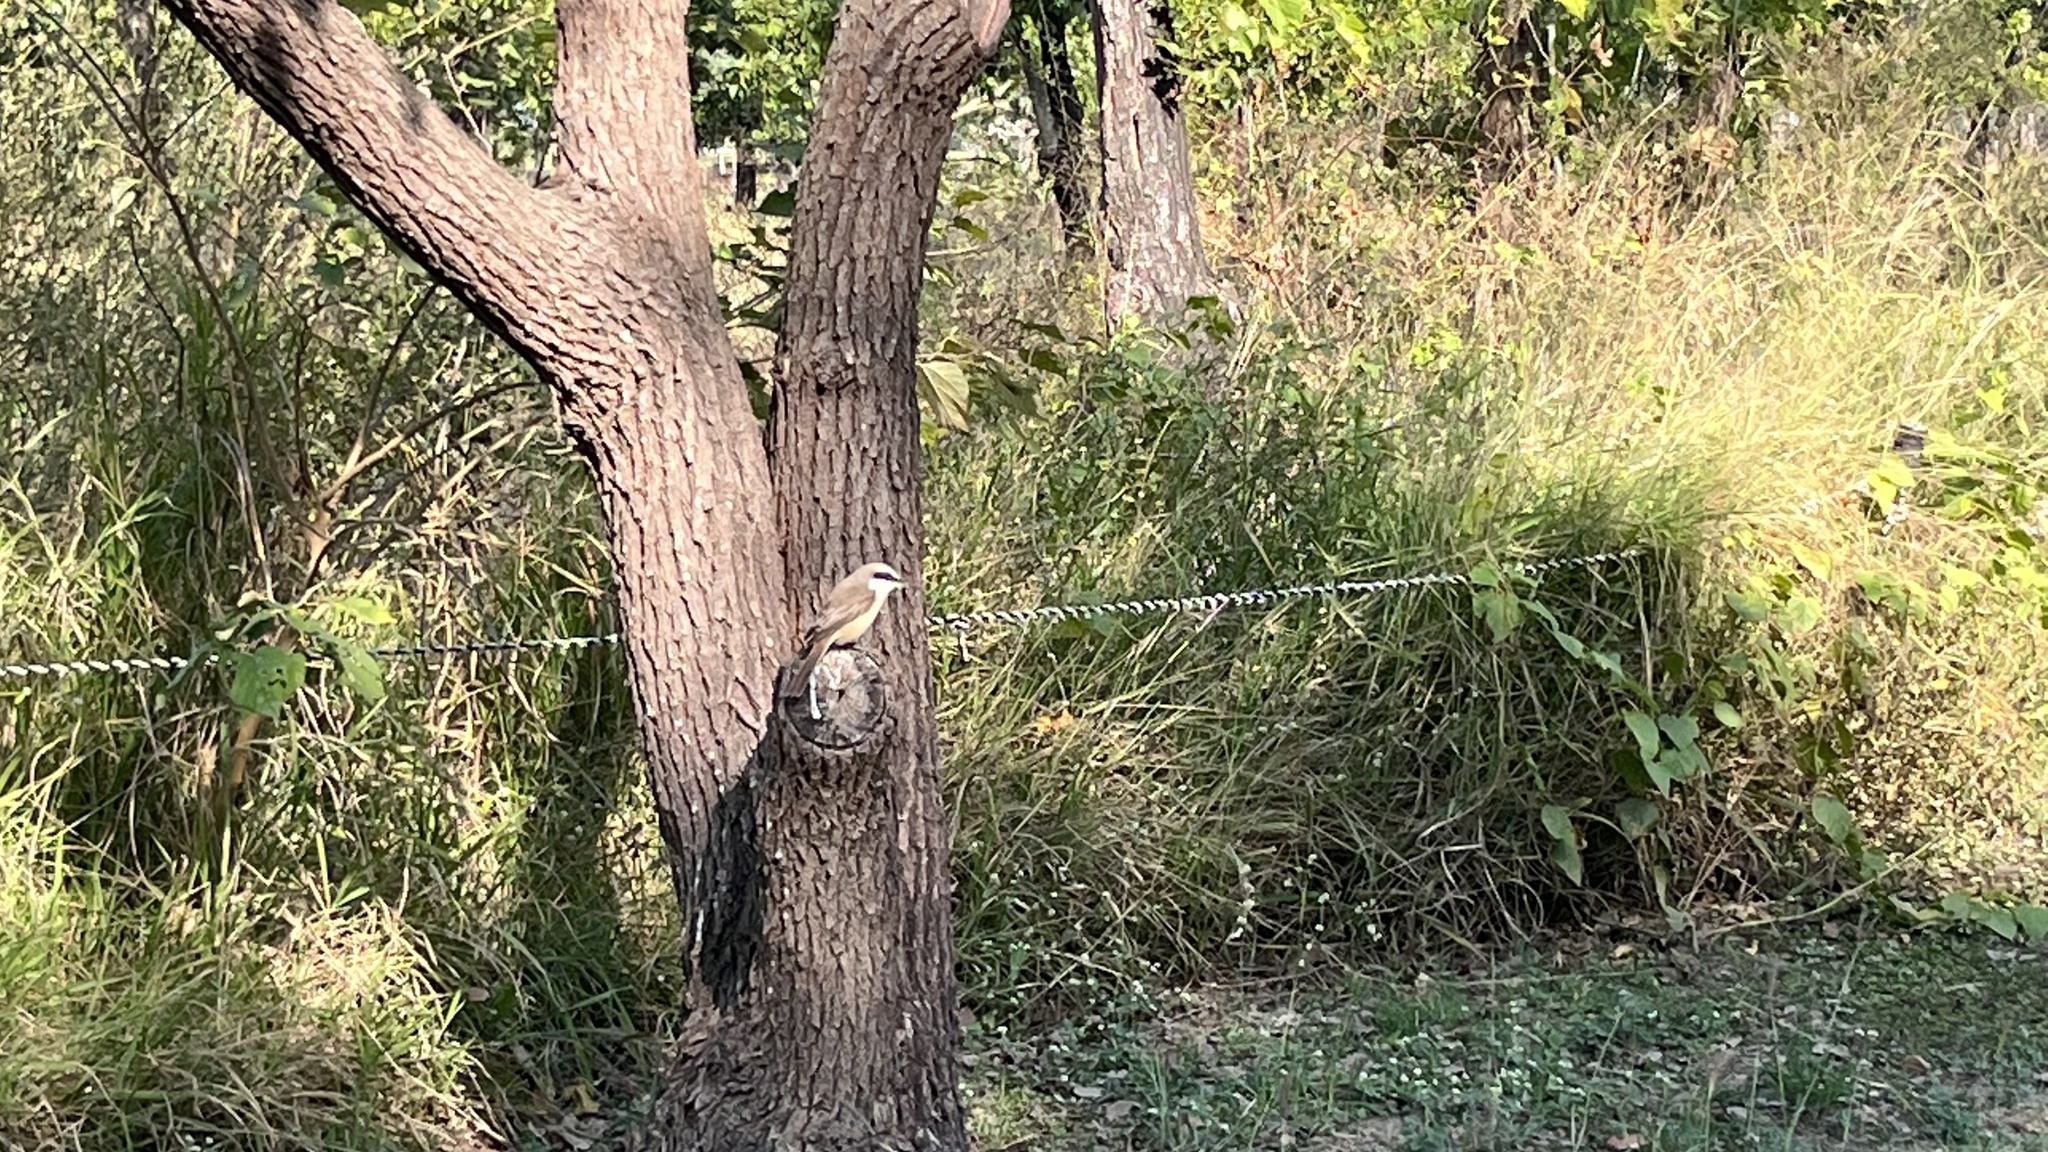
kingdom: Animalia
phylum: Chordata
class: Aves
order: Passeriformes
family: Laniidae
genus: Lanius
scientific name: Lanius cristatus
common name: Brown shrike
